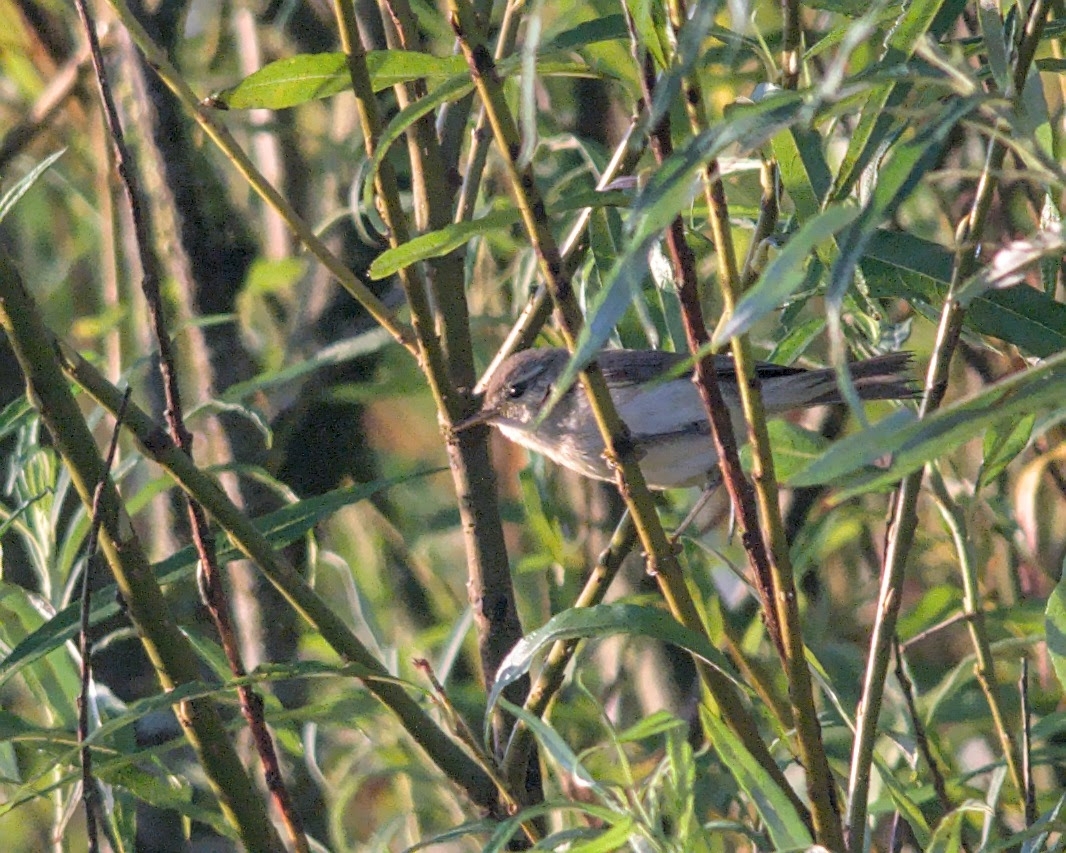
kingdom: Animalia
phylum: Chordata
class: Aves
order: Passeriformes
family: Phylloscopidae
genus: Phylloscopus
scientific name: Phylloscopus collybita
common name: Common chiffchaff
